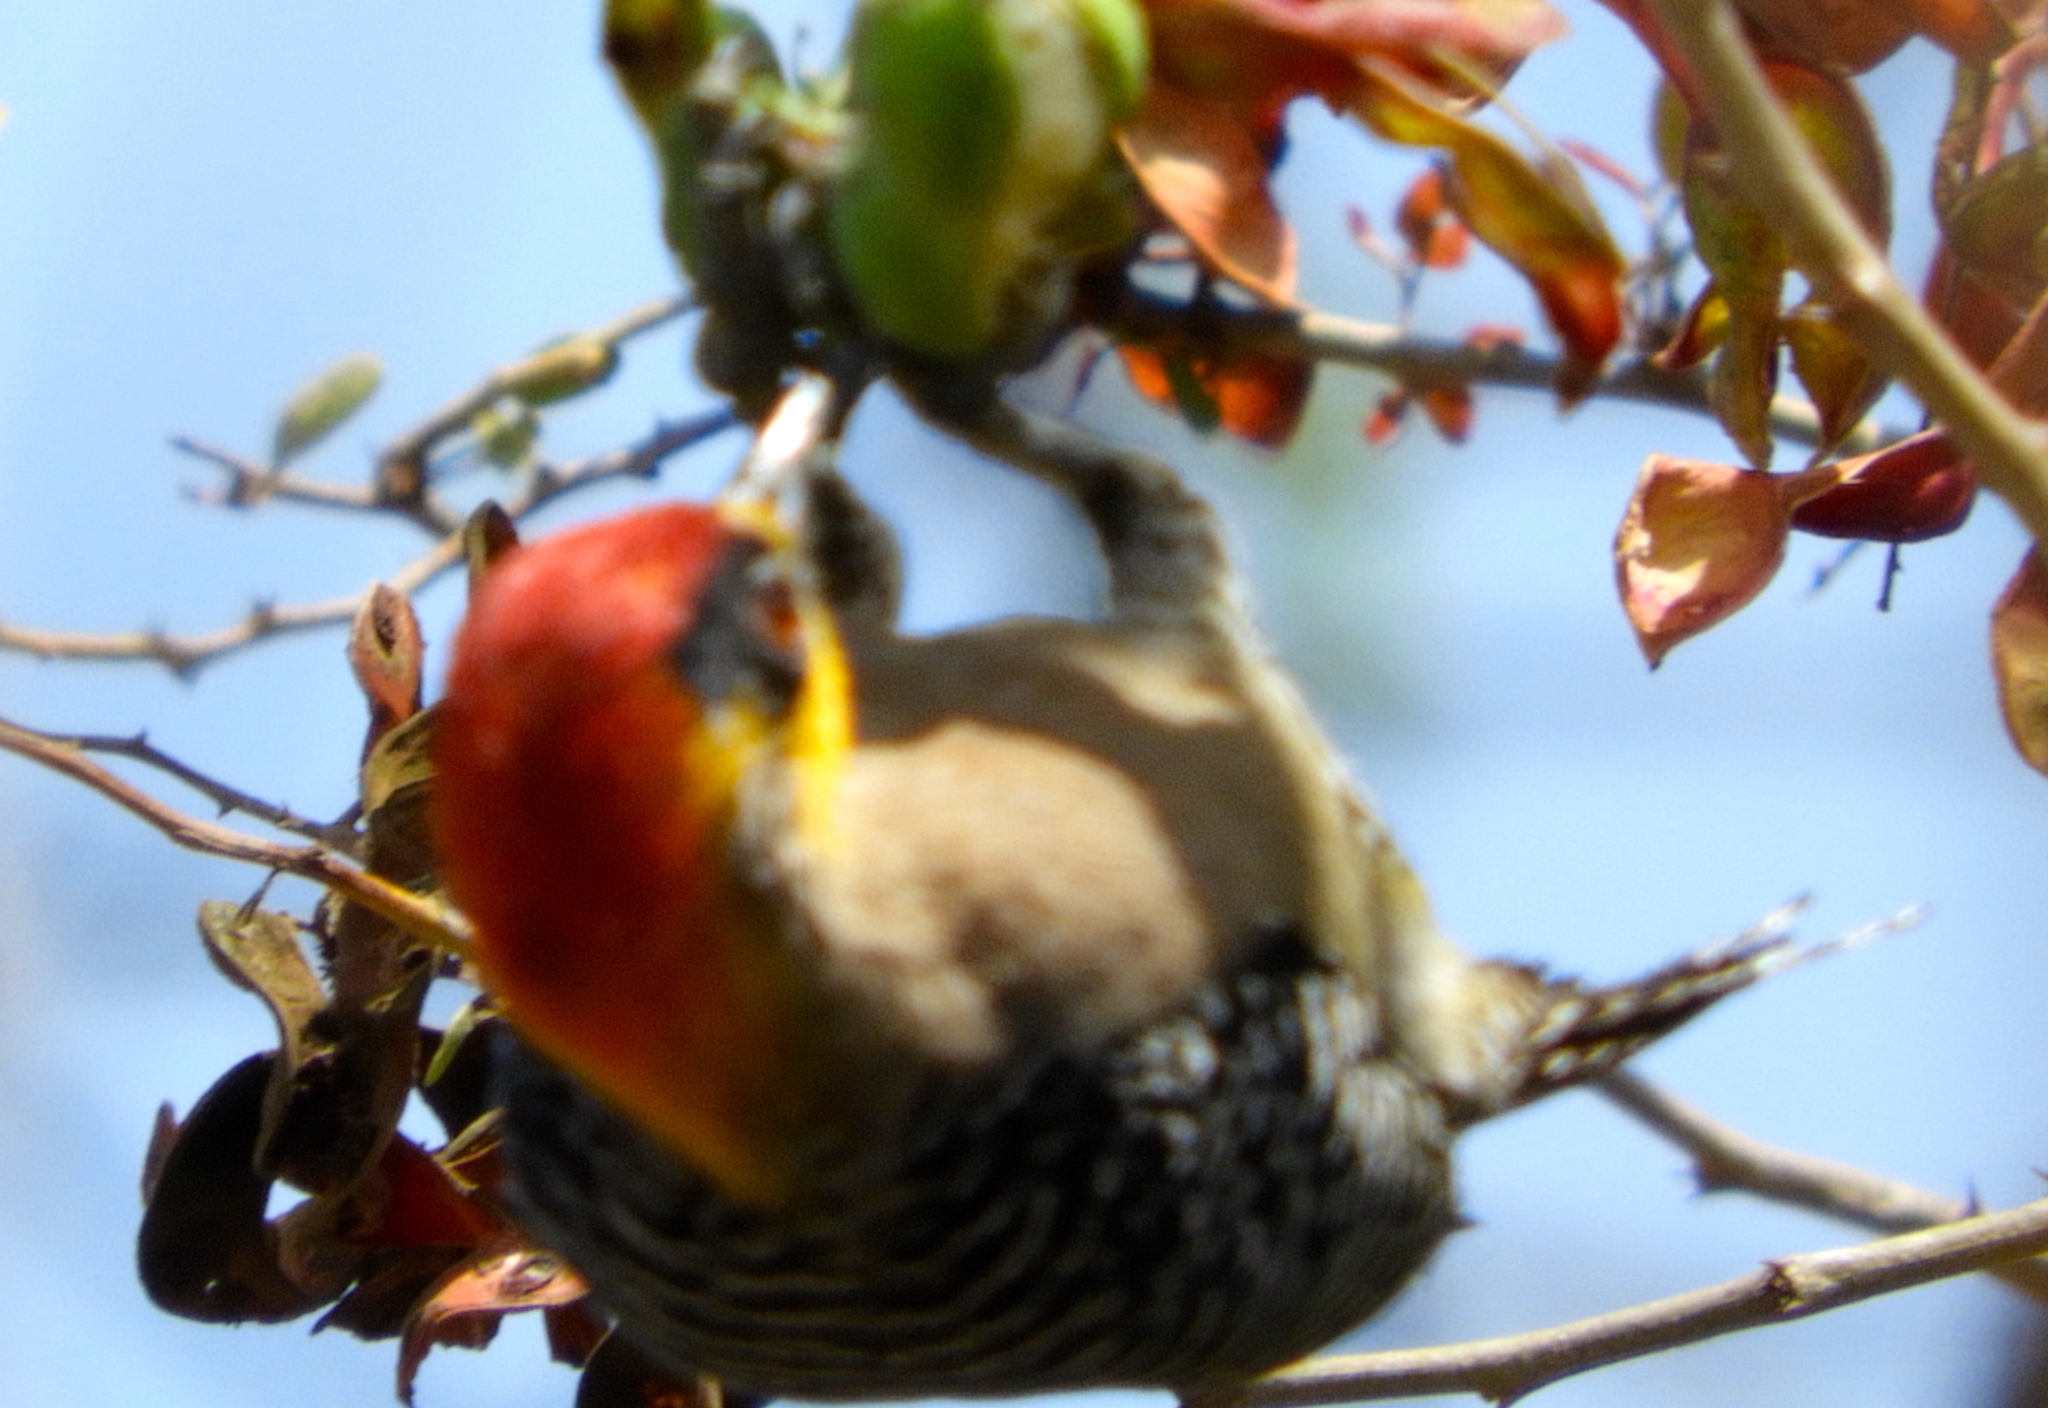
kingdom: Animalia
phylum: Chordata
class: Aves
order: Piciformes
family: Picidae
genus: Melanerpes
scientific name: Melanerpes chrysogenys
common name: Golden-cheeked woodpecker
